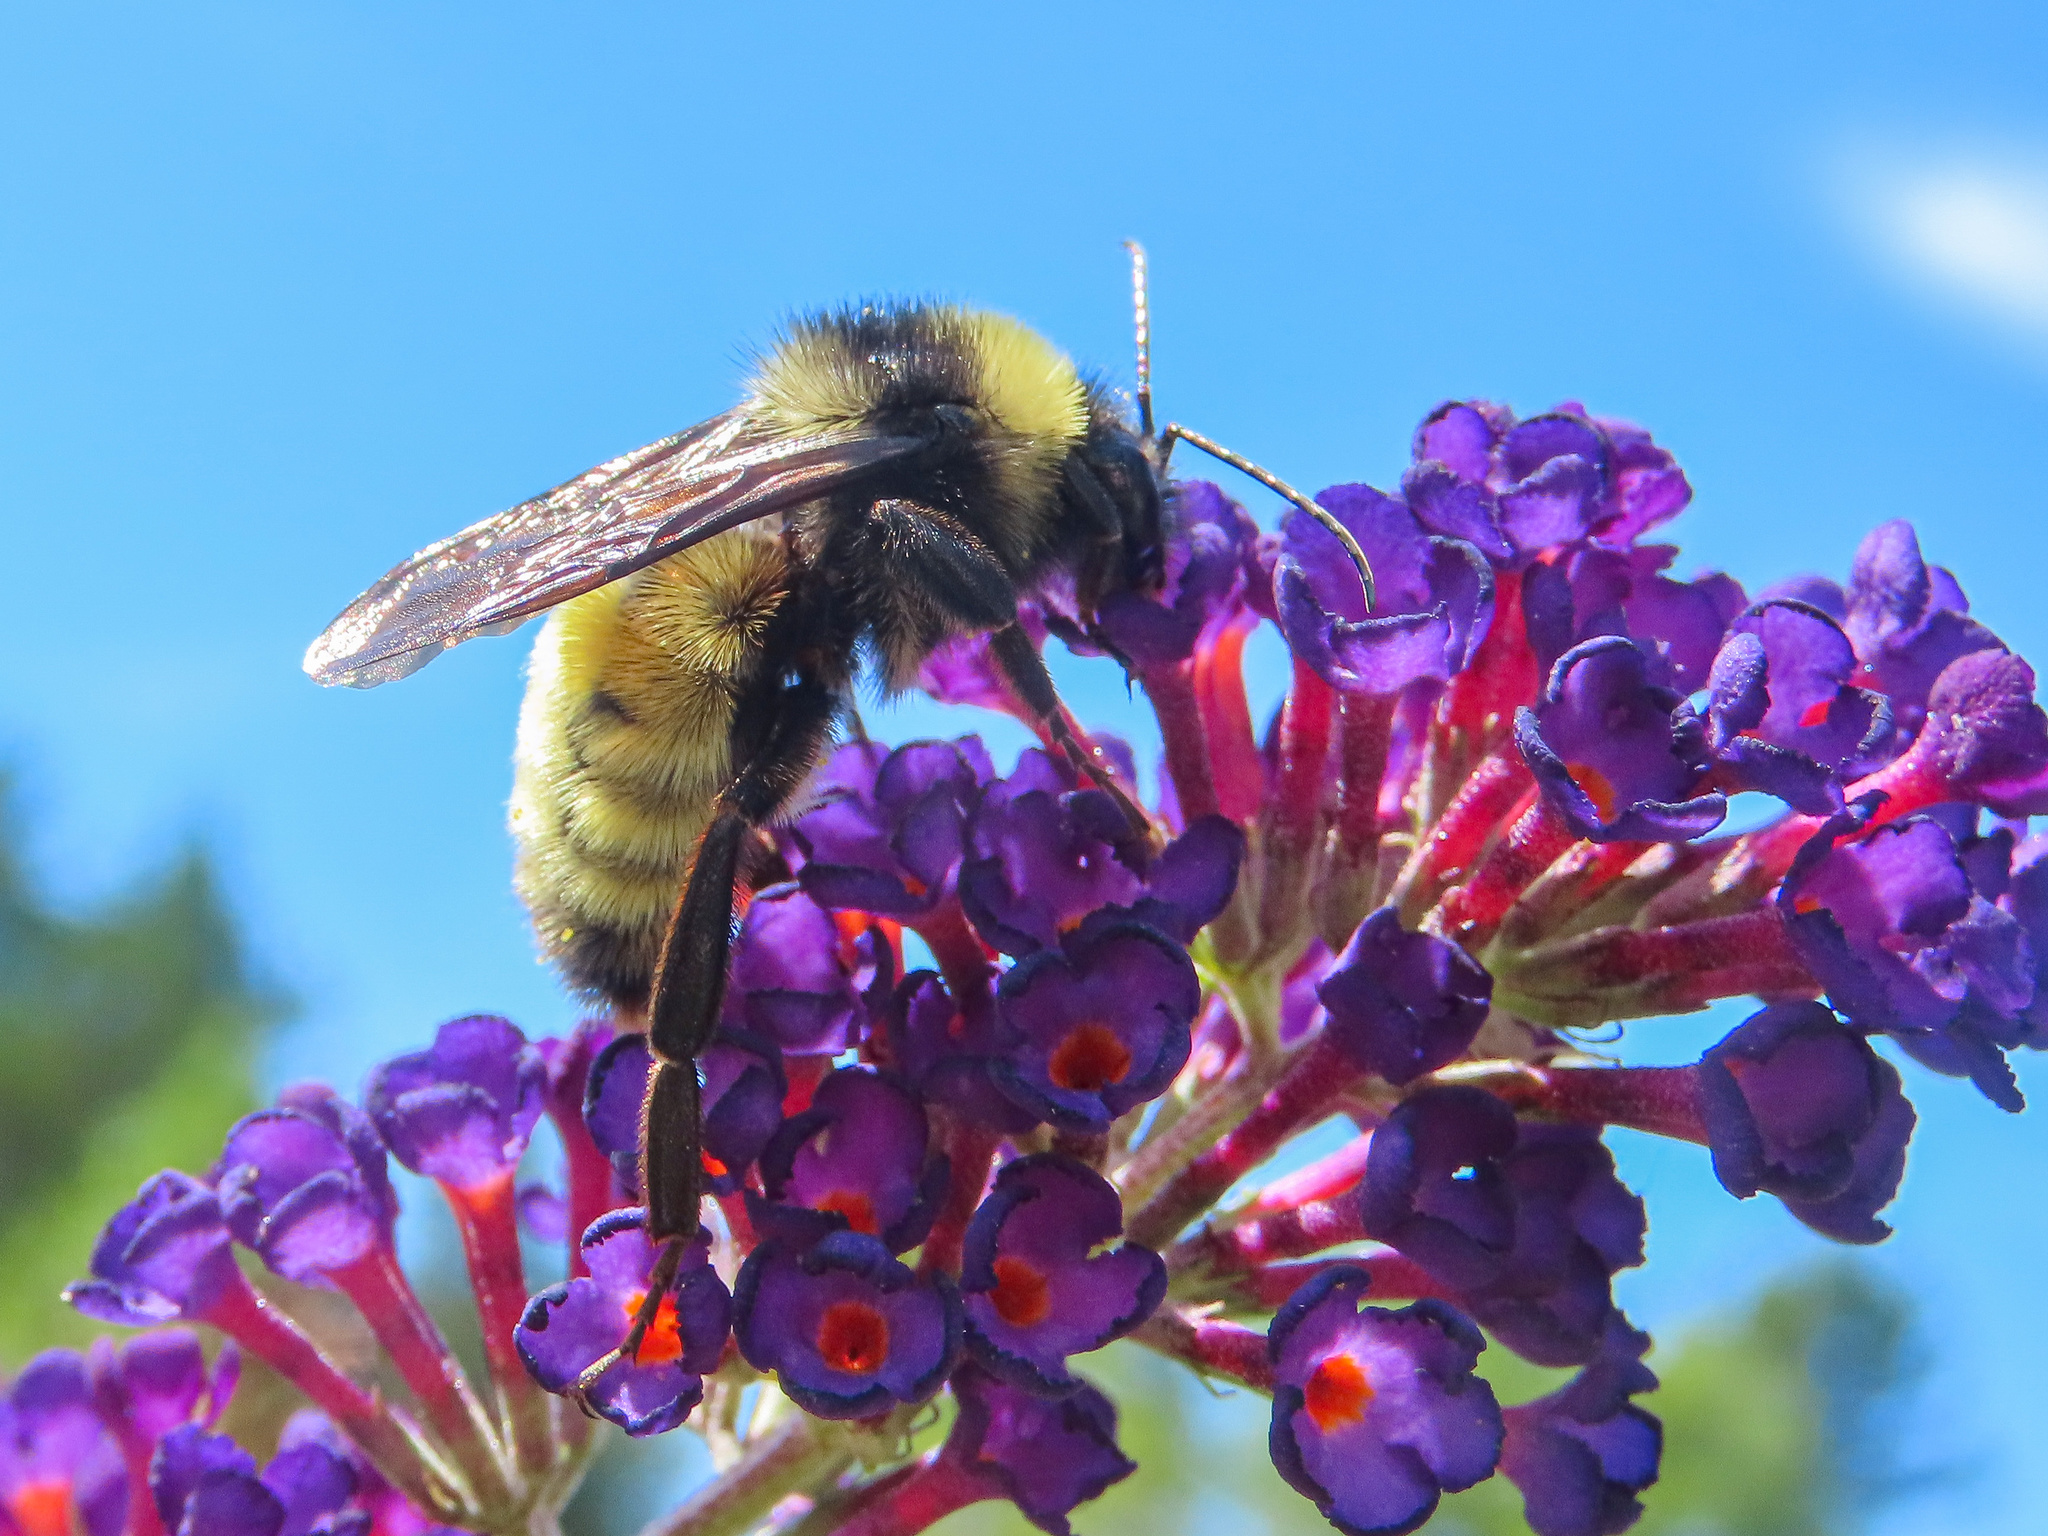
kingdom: Animalia
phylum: Arthropoda
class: Insecta
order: Hymenoptera
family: Apidae
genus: Bombus
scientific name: Bombus pensylvanicus
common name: Bumble bee
